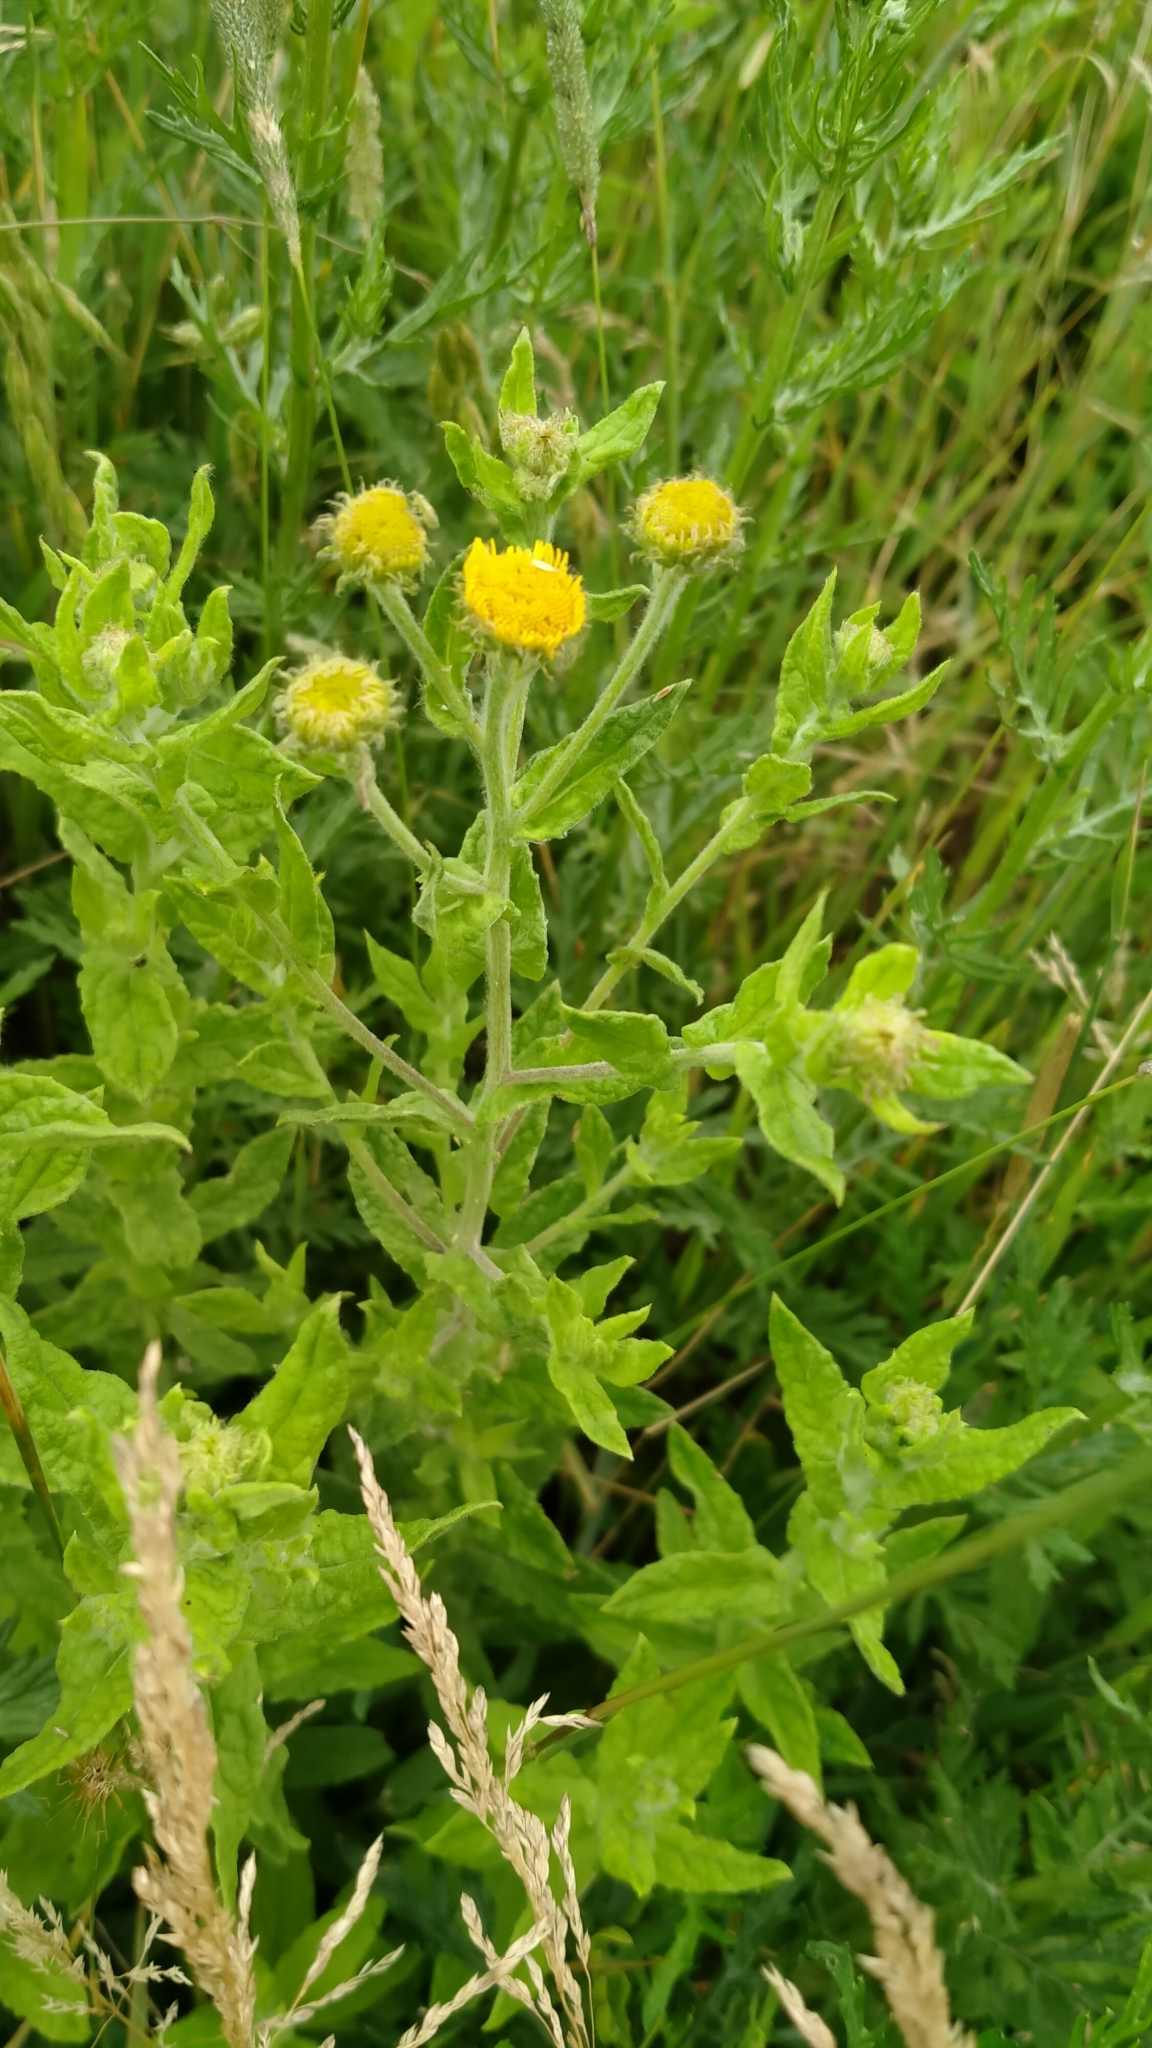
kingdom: Plantae
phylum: Tracheophyta
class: Magnoliopsida
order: Asterales
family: Asteraceae
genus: Pulicaria
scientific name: Pulicaria dysenterica
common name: Common fleabane
